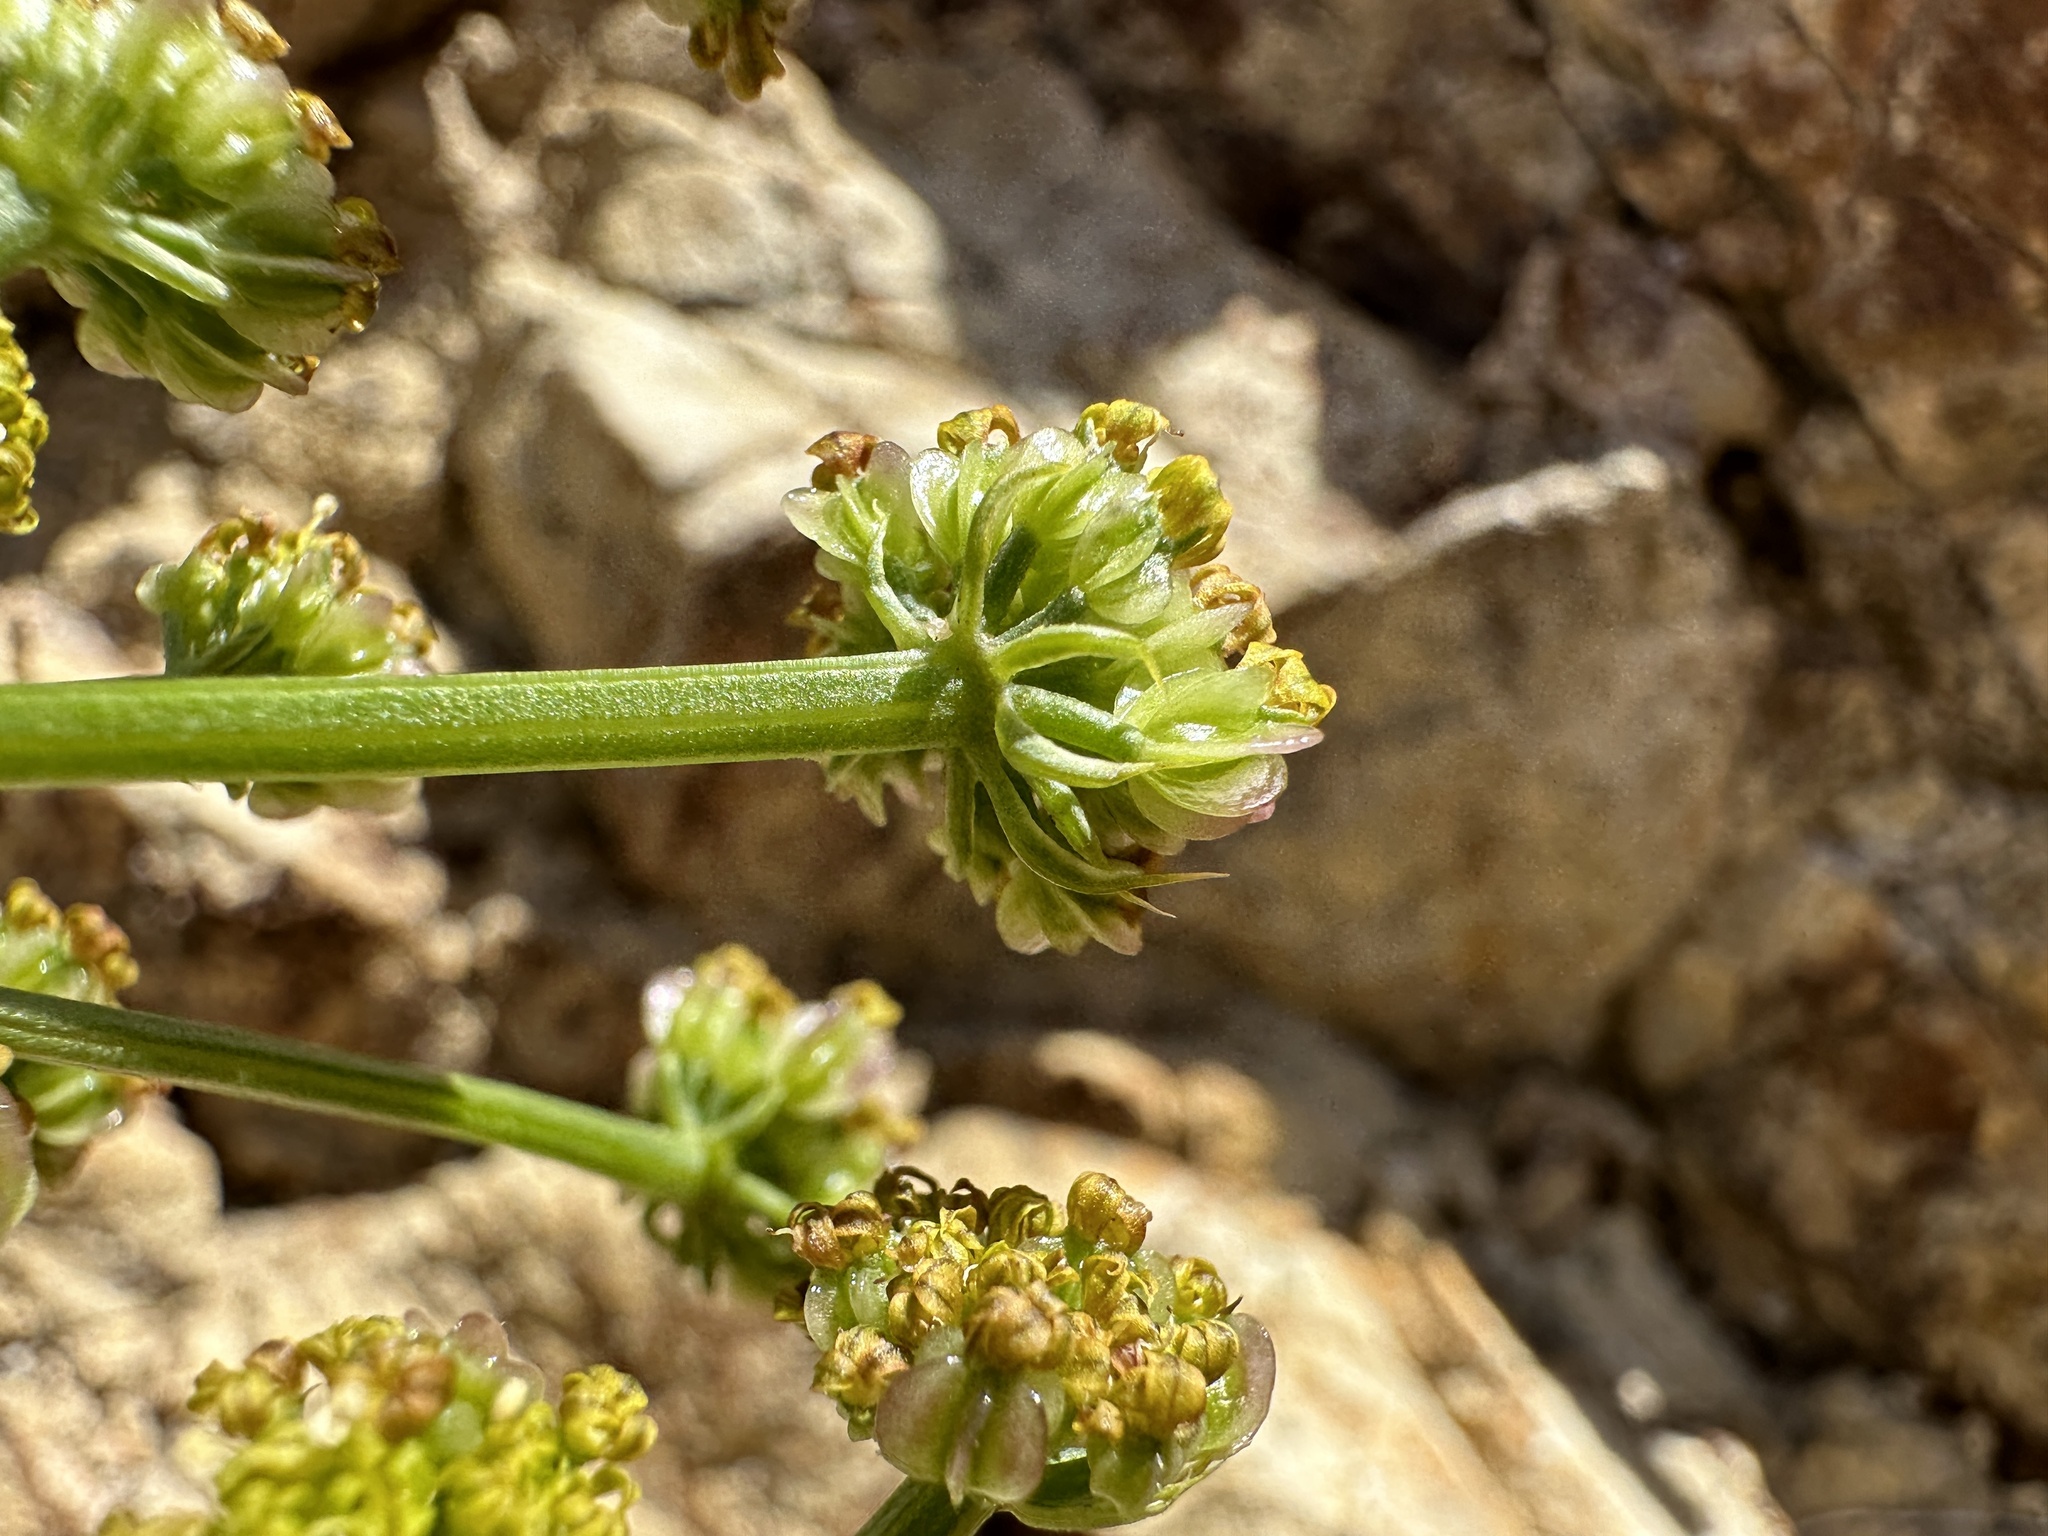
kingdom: Plantae
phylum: Tracheophyta
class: Magnoliopsida
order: Apiales
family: Apiaceae
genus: Pteryxia
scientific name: Pteryxia terebinthina
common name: Turpentine wavewing
